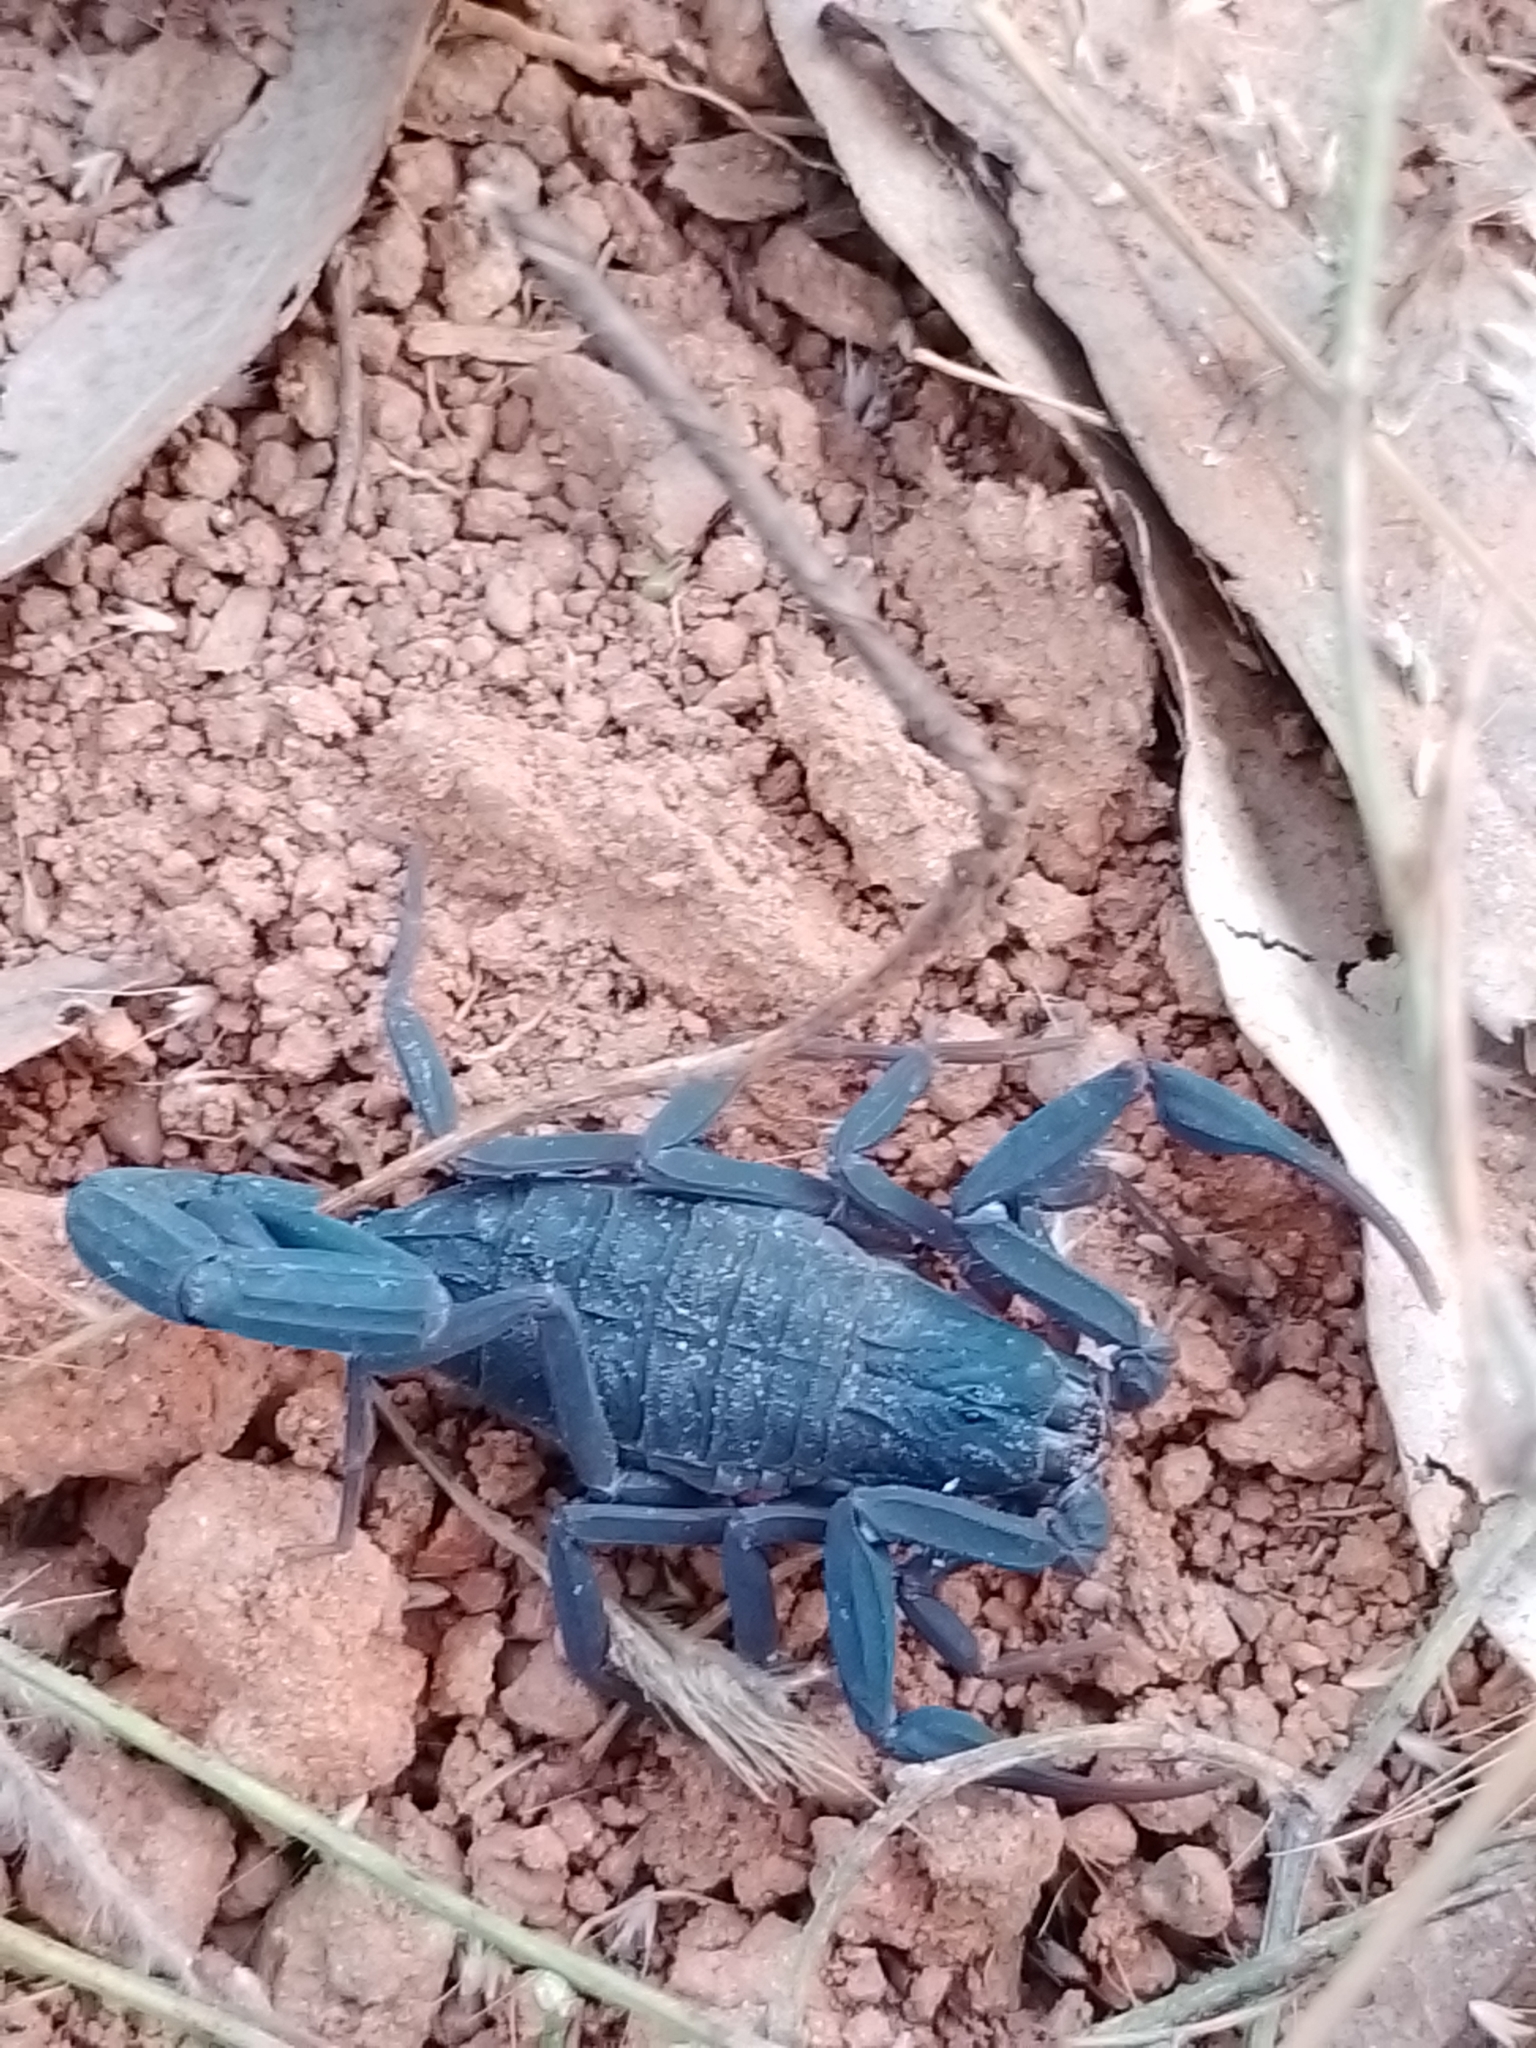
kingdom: Animalia
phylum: Arthropoda
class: Arachnida
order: Scorpiones
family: Buthidae
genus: Centruroides
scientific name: Centruroides nigrescens
